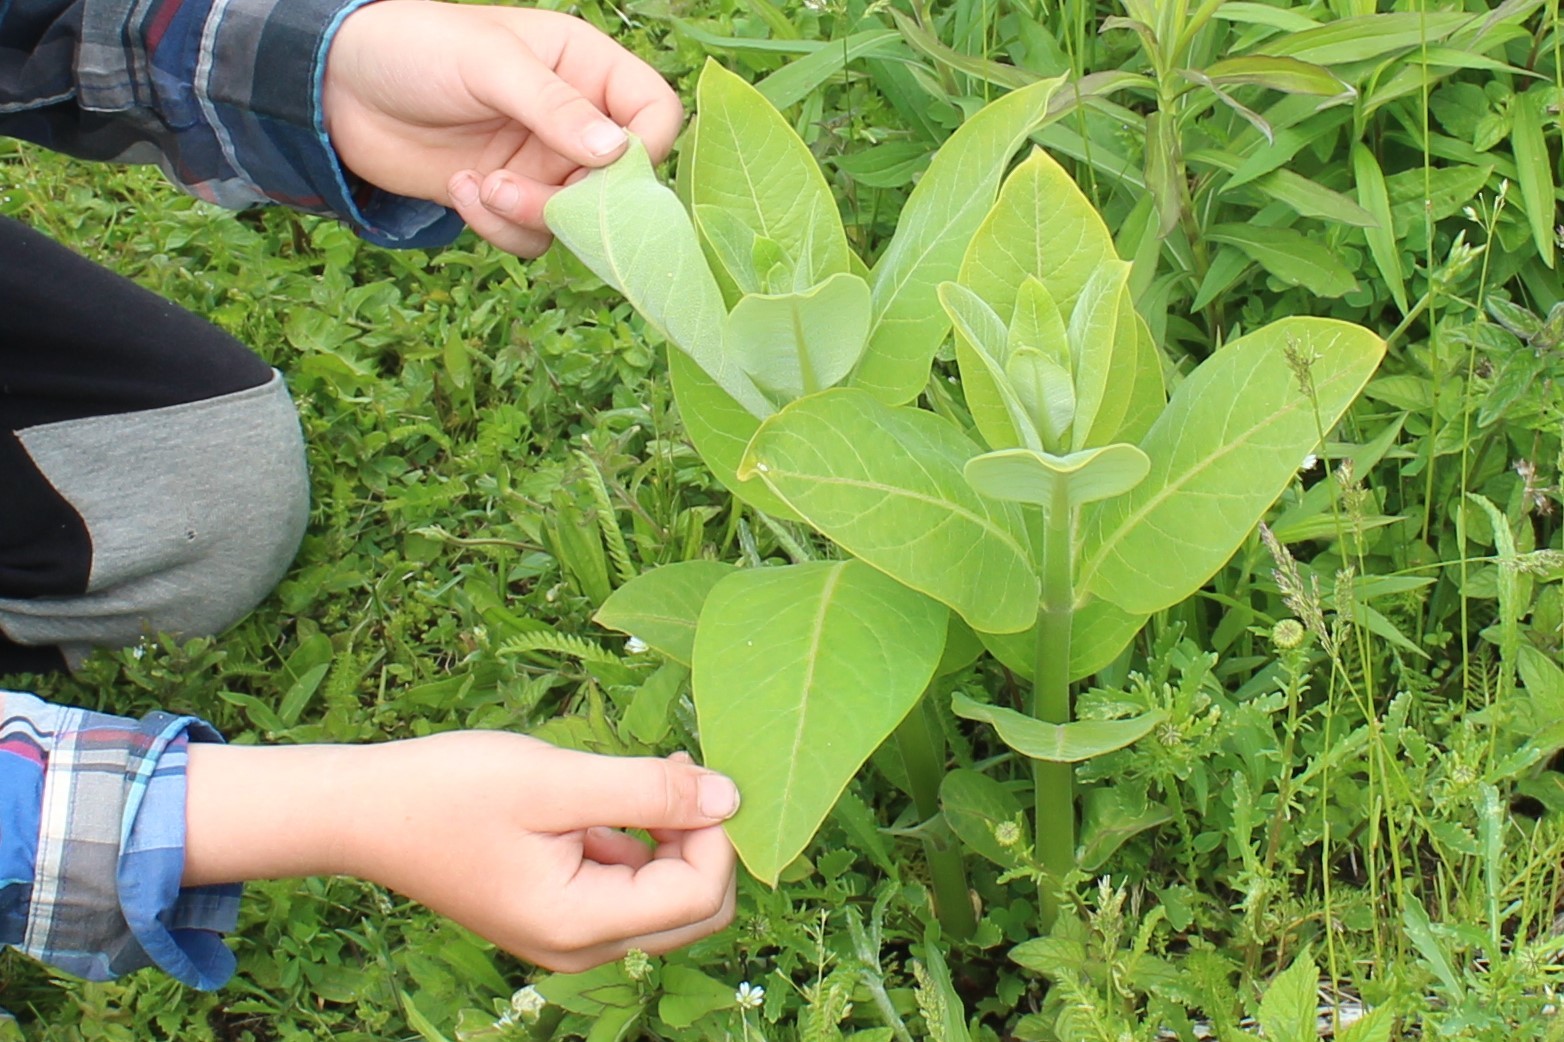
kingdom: Plantae
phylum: Tracheophyta
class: Magnoliopsida
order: Gentianales
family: Apocynaceae
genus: Asclepias
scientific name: Asclepias syriaca
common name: Common milkweed
